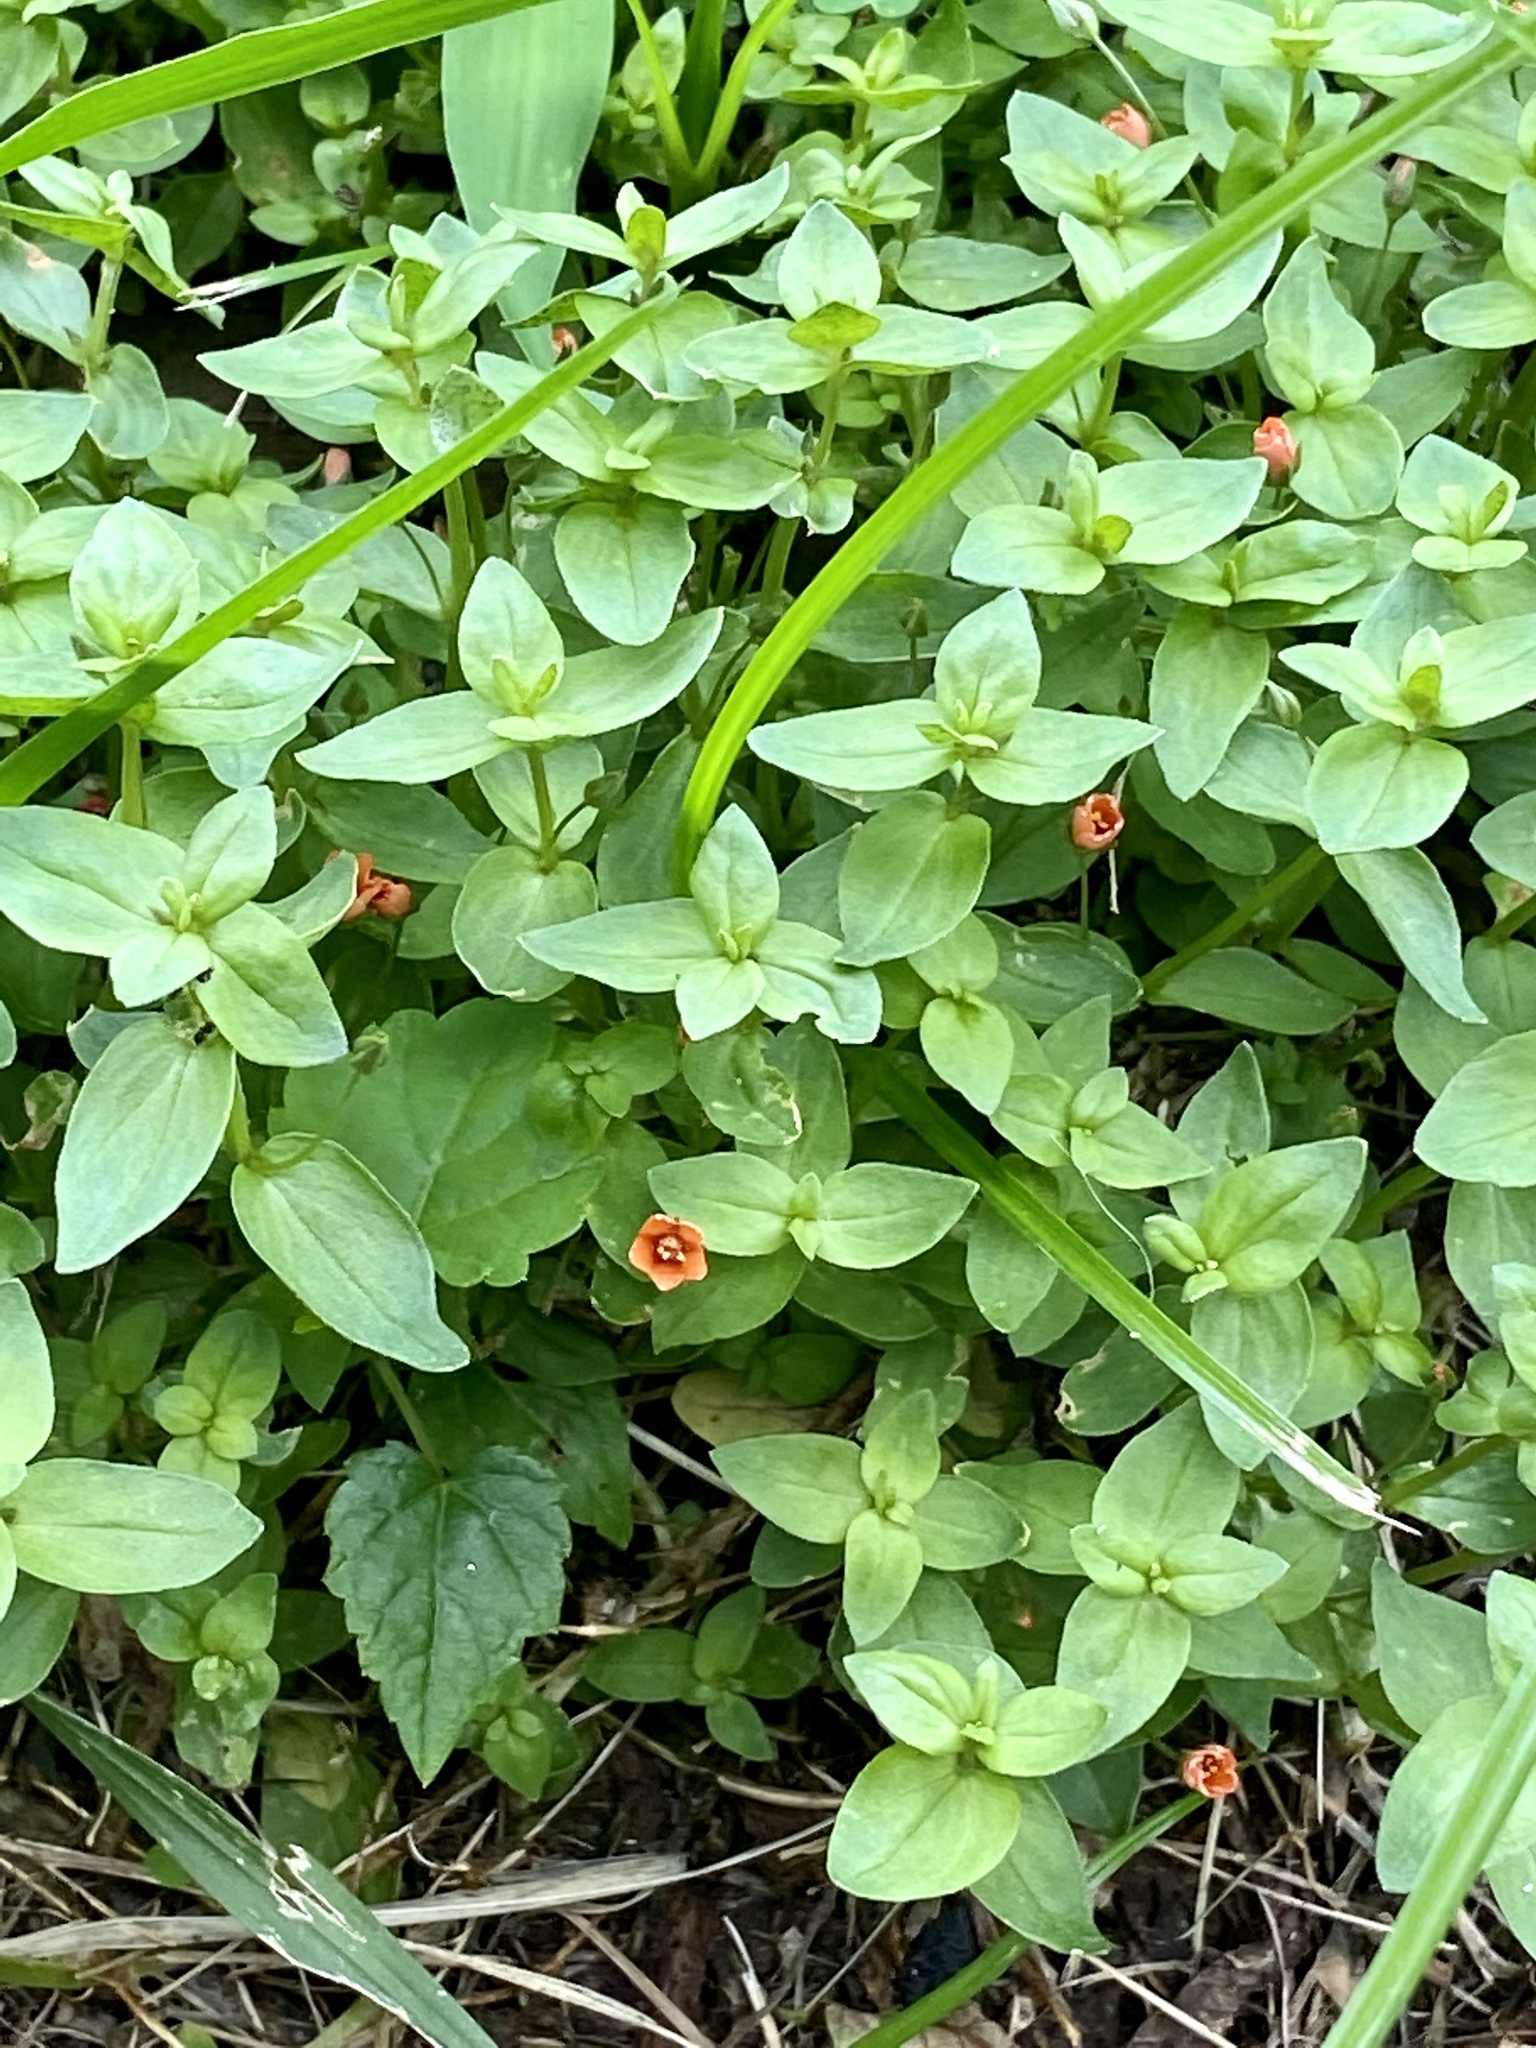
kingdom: Plantae
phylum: Tracheophyta
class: Magnoliopsida
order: Ericales
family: Primulaceae
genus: Lysimachia
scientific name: Lysimachia arvensis
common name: Scarlet pimpernel
